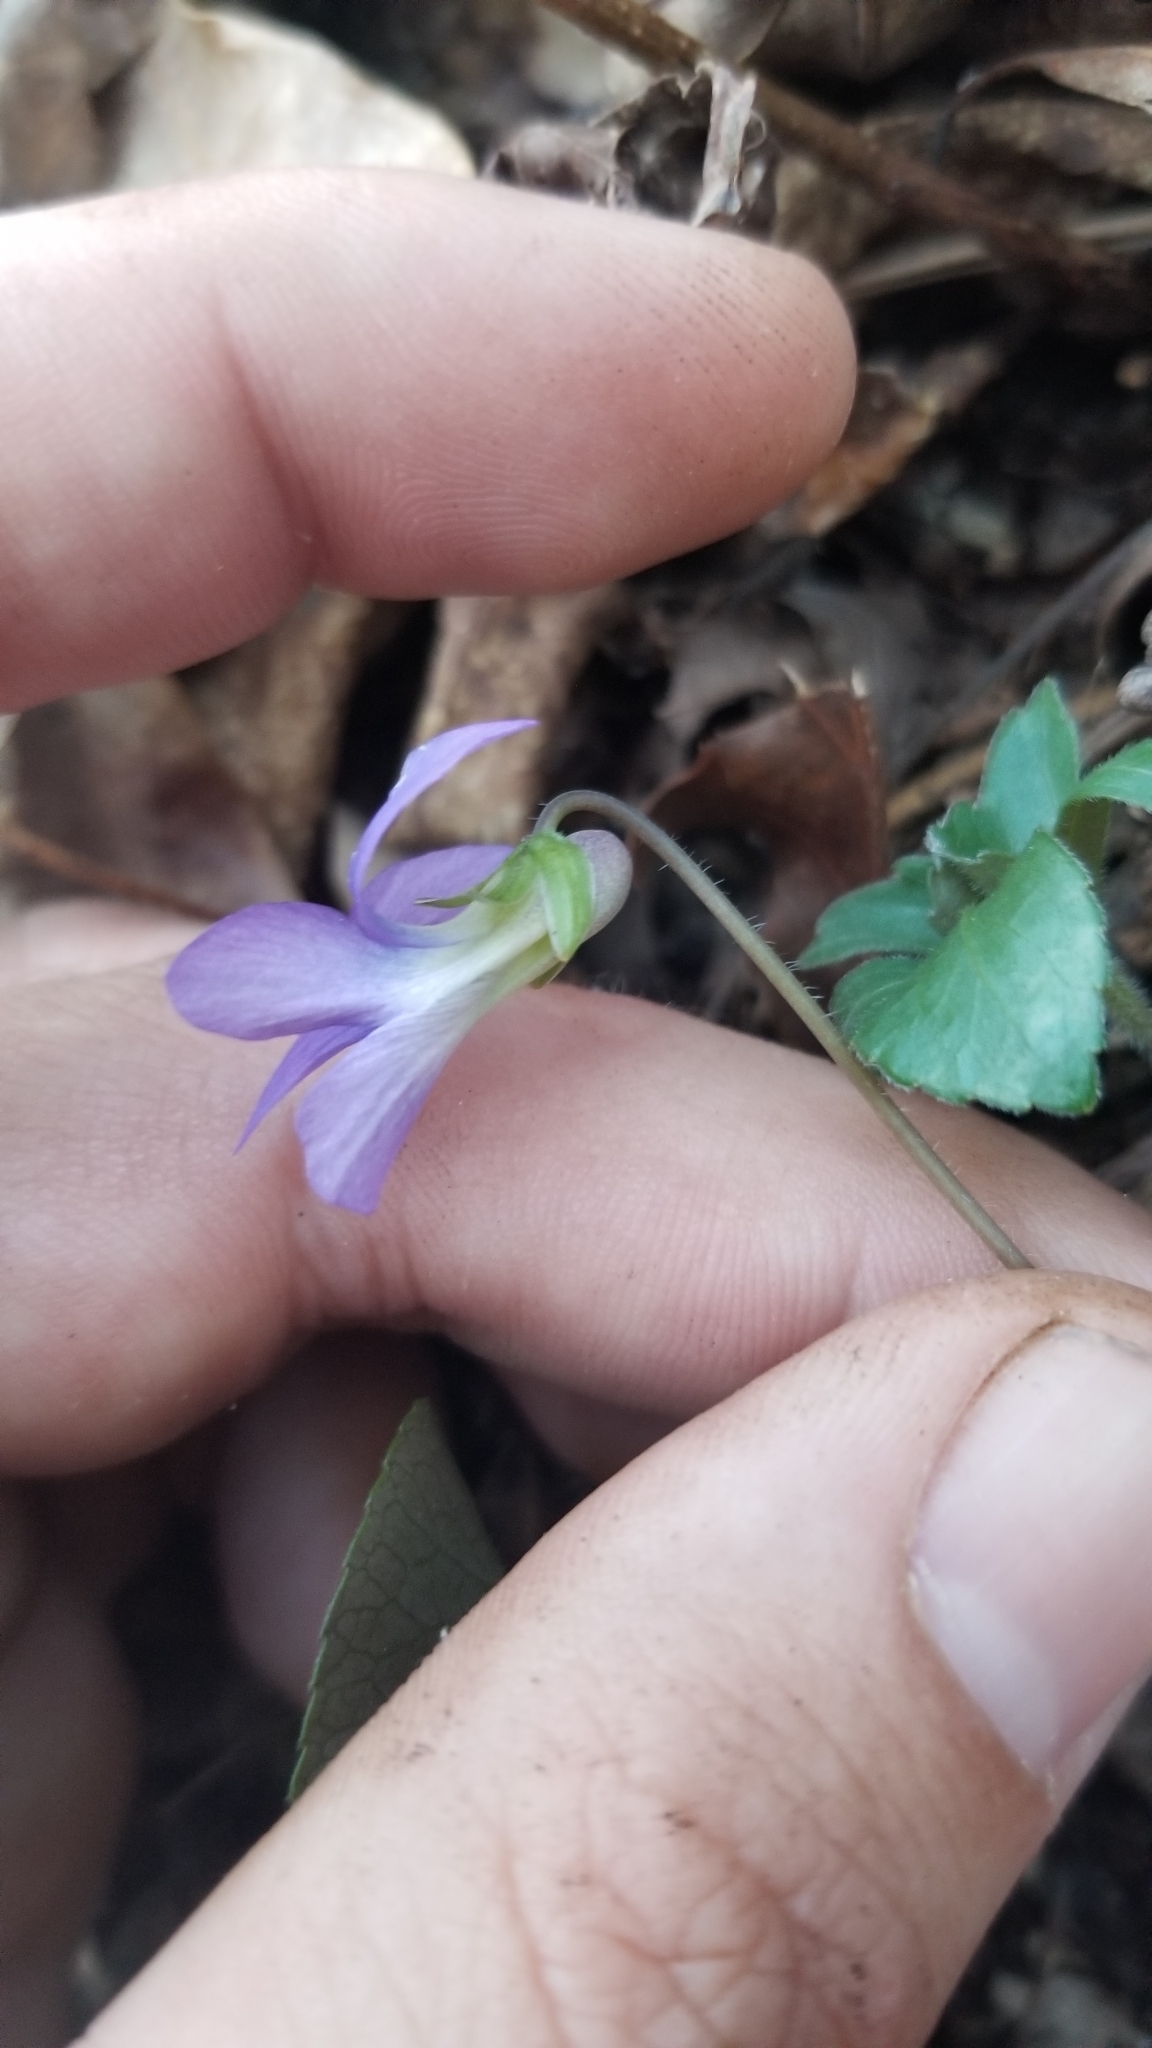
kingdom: Plantae
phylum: Tracheophyta
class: Magnoliopsida
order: Malpighiales
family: Violaceae
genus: Viola
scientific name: Viola palmata
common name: Early blue violet
